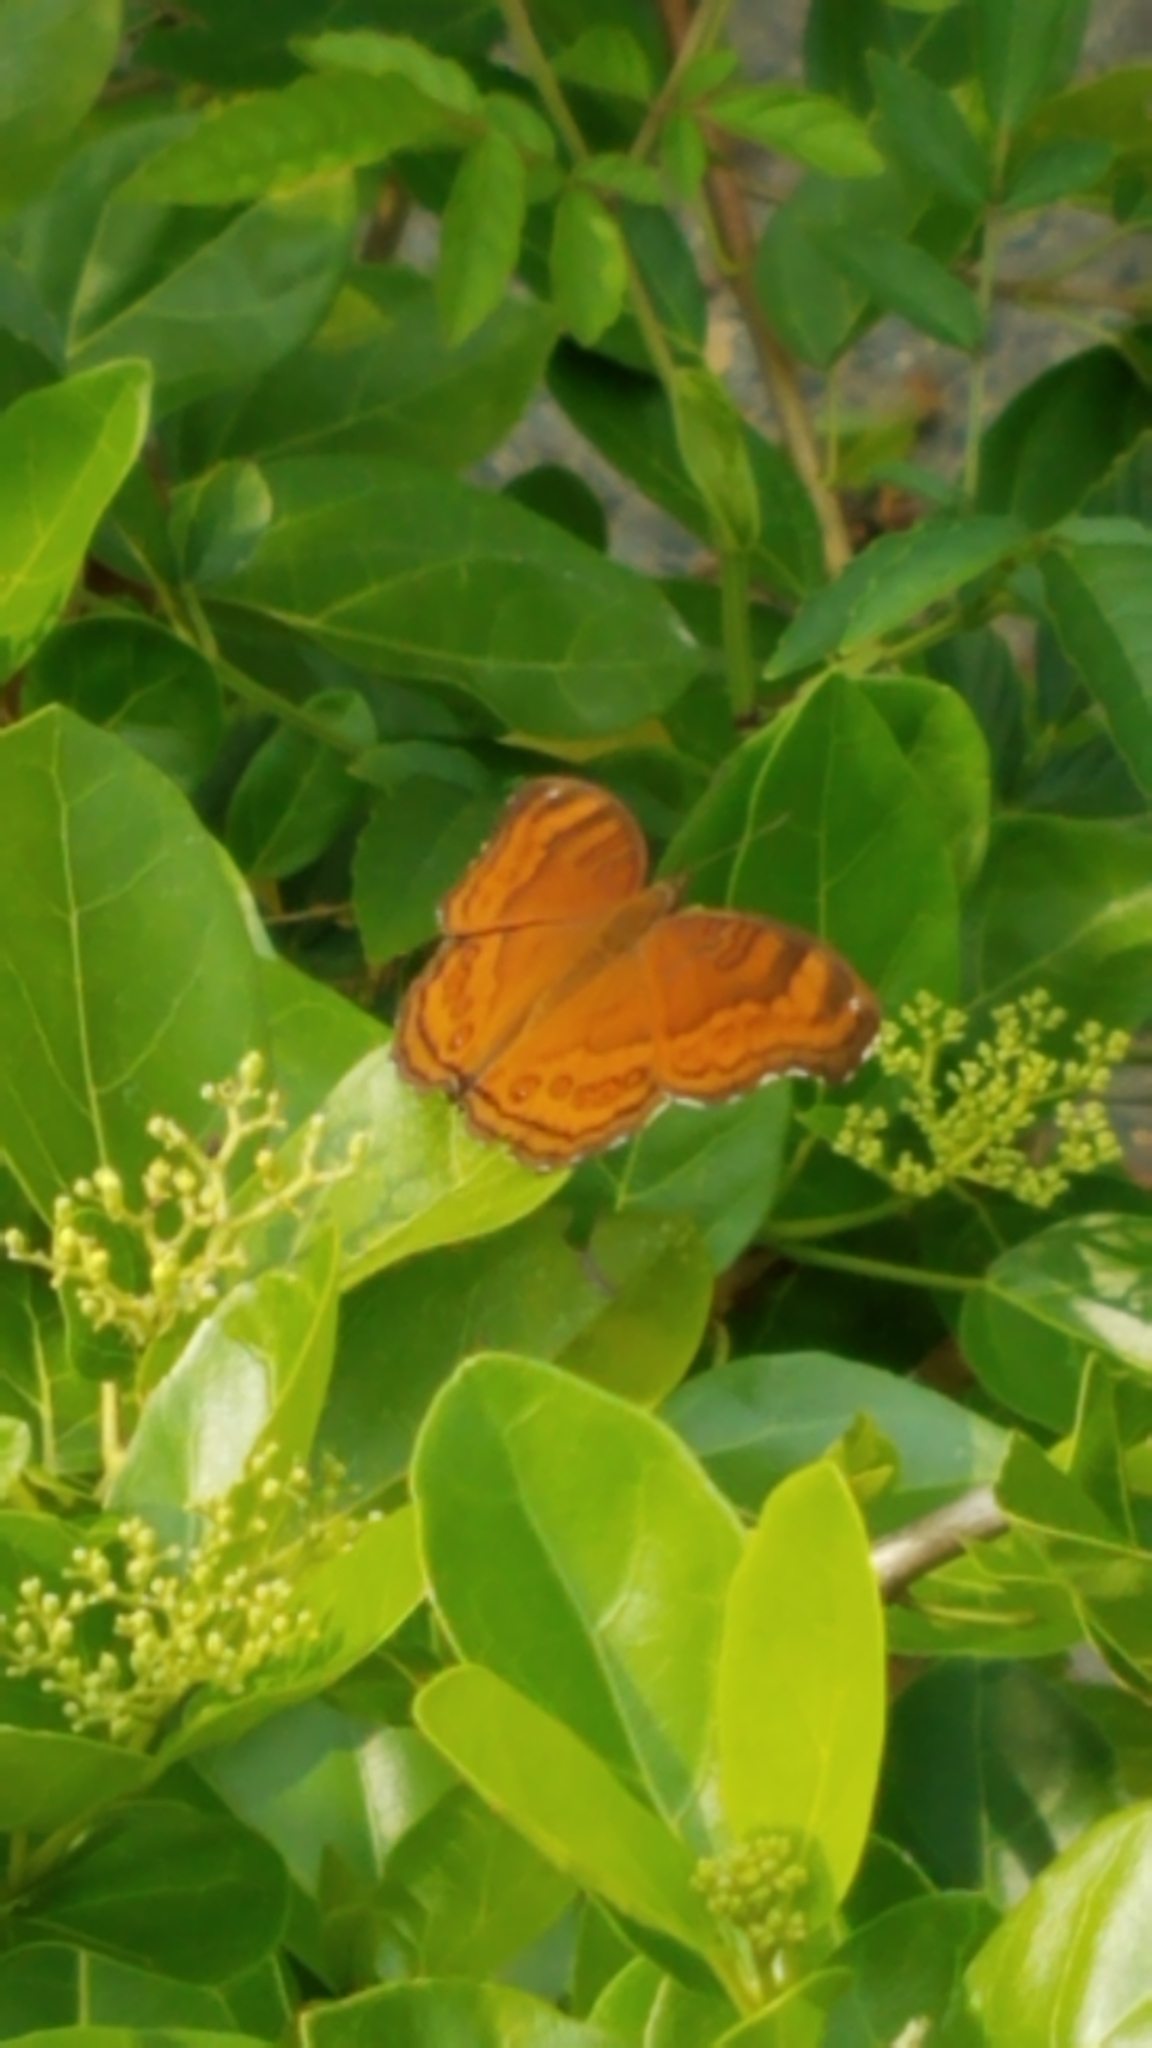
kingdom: Animalia
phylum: Arthropoda
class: Insecta
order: Lepidoptera
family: Nymphalidae
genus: Junonia
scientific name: Junonia hedonia
